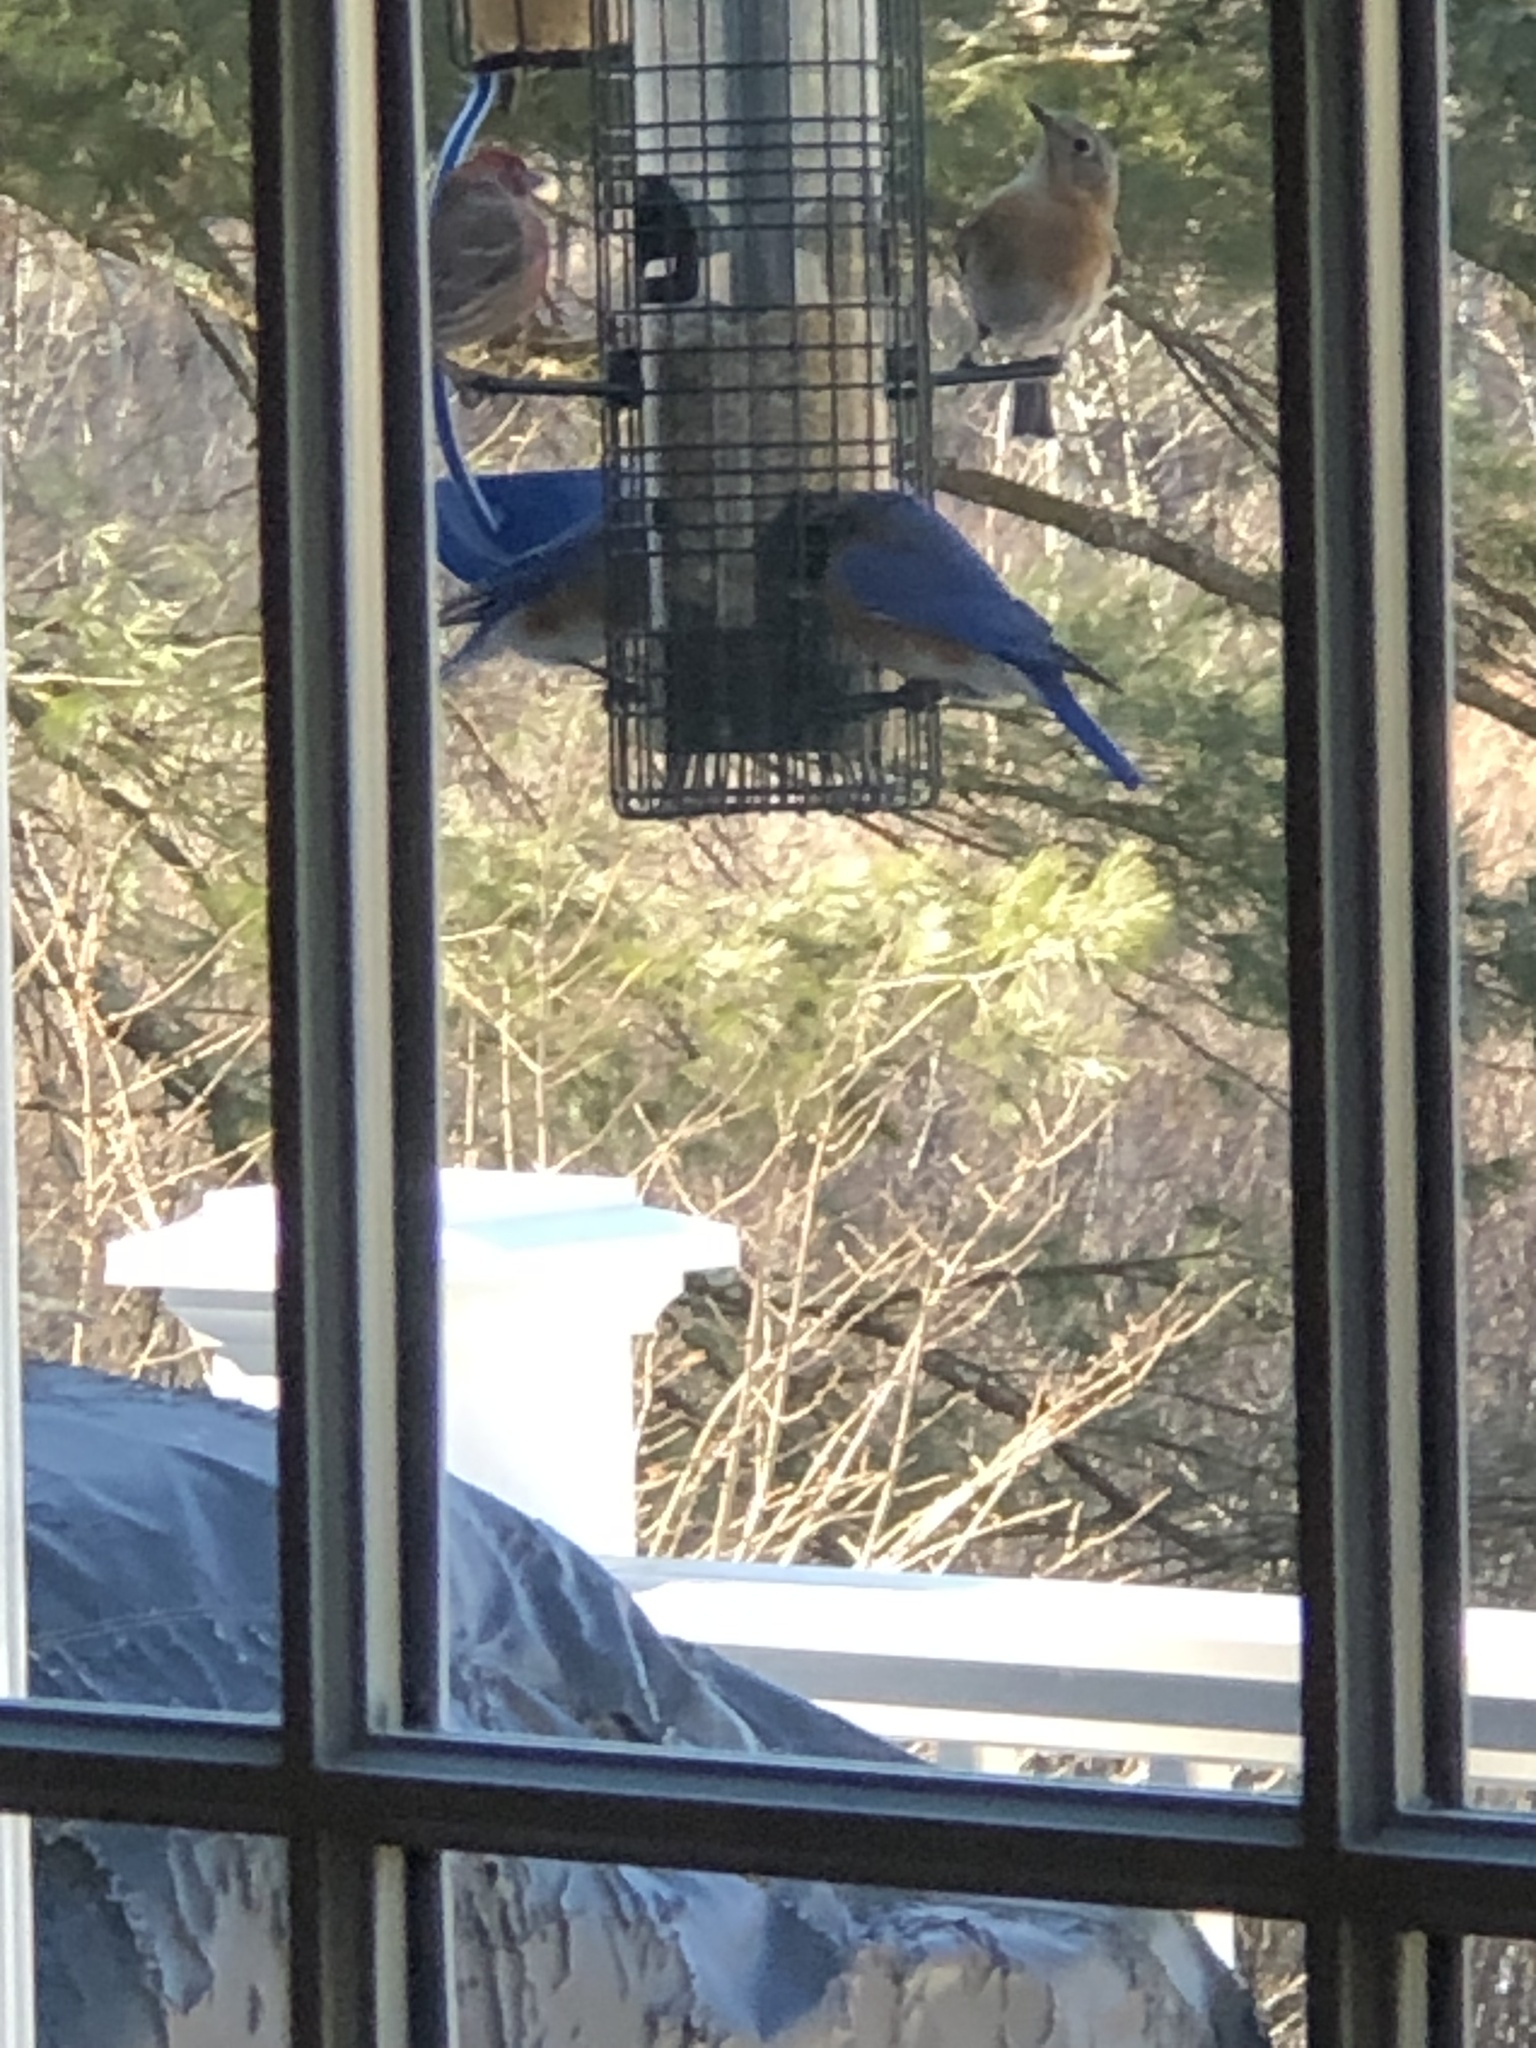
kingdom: Animalia
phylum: Chordata
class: Aves
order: Passeriformes
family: Turdidae
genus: Sialia
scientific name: Sialia sialis
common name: Eastern bluebird
